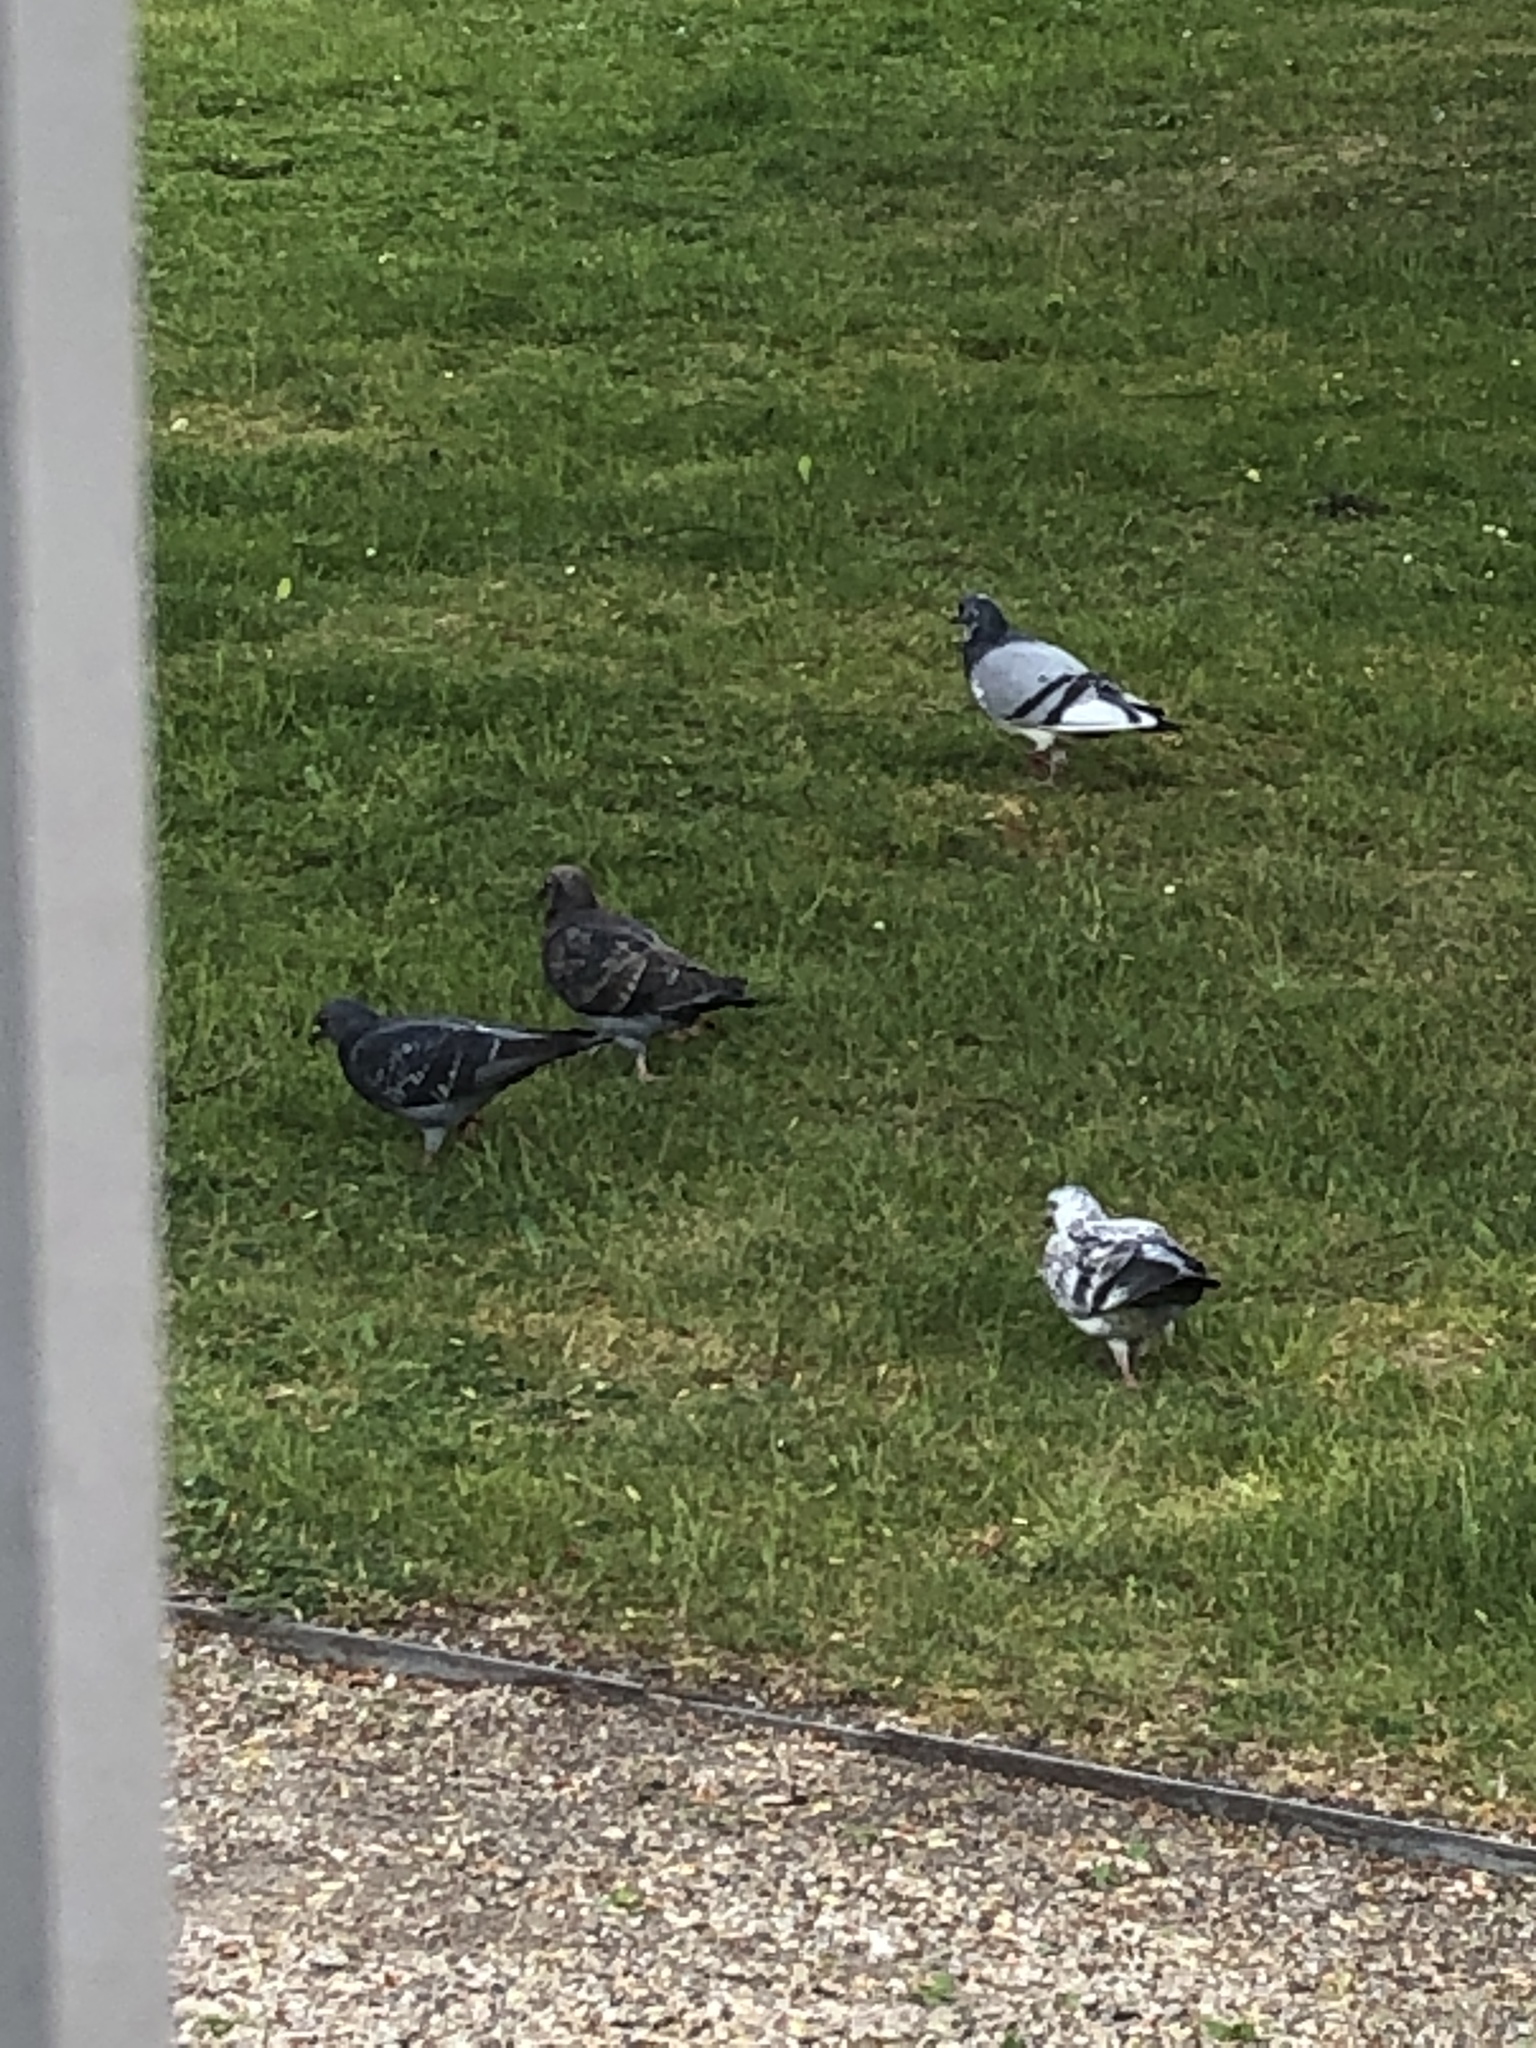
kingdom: Animalia
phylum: Chordata
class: Aves
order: Columbiformes
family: Columbidae
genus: Columba
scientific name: Columba livia
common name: Rock pigeon
